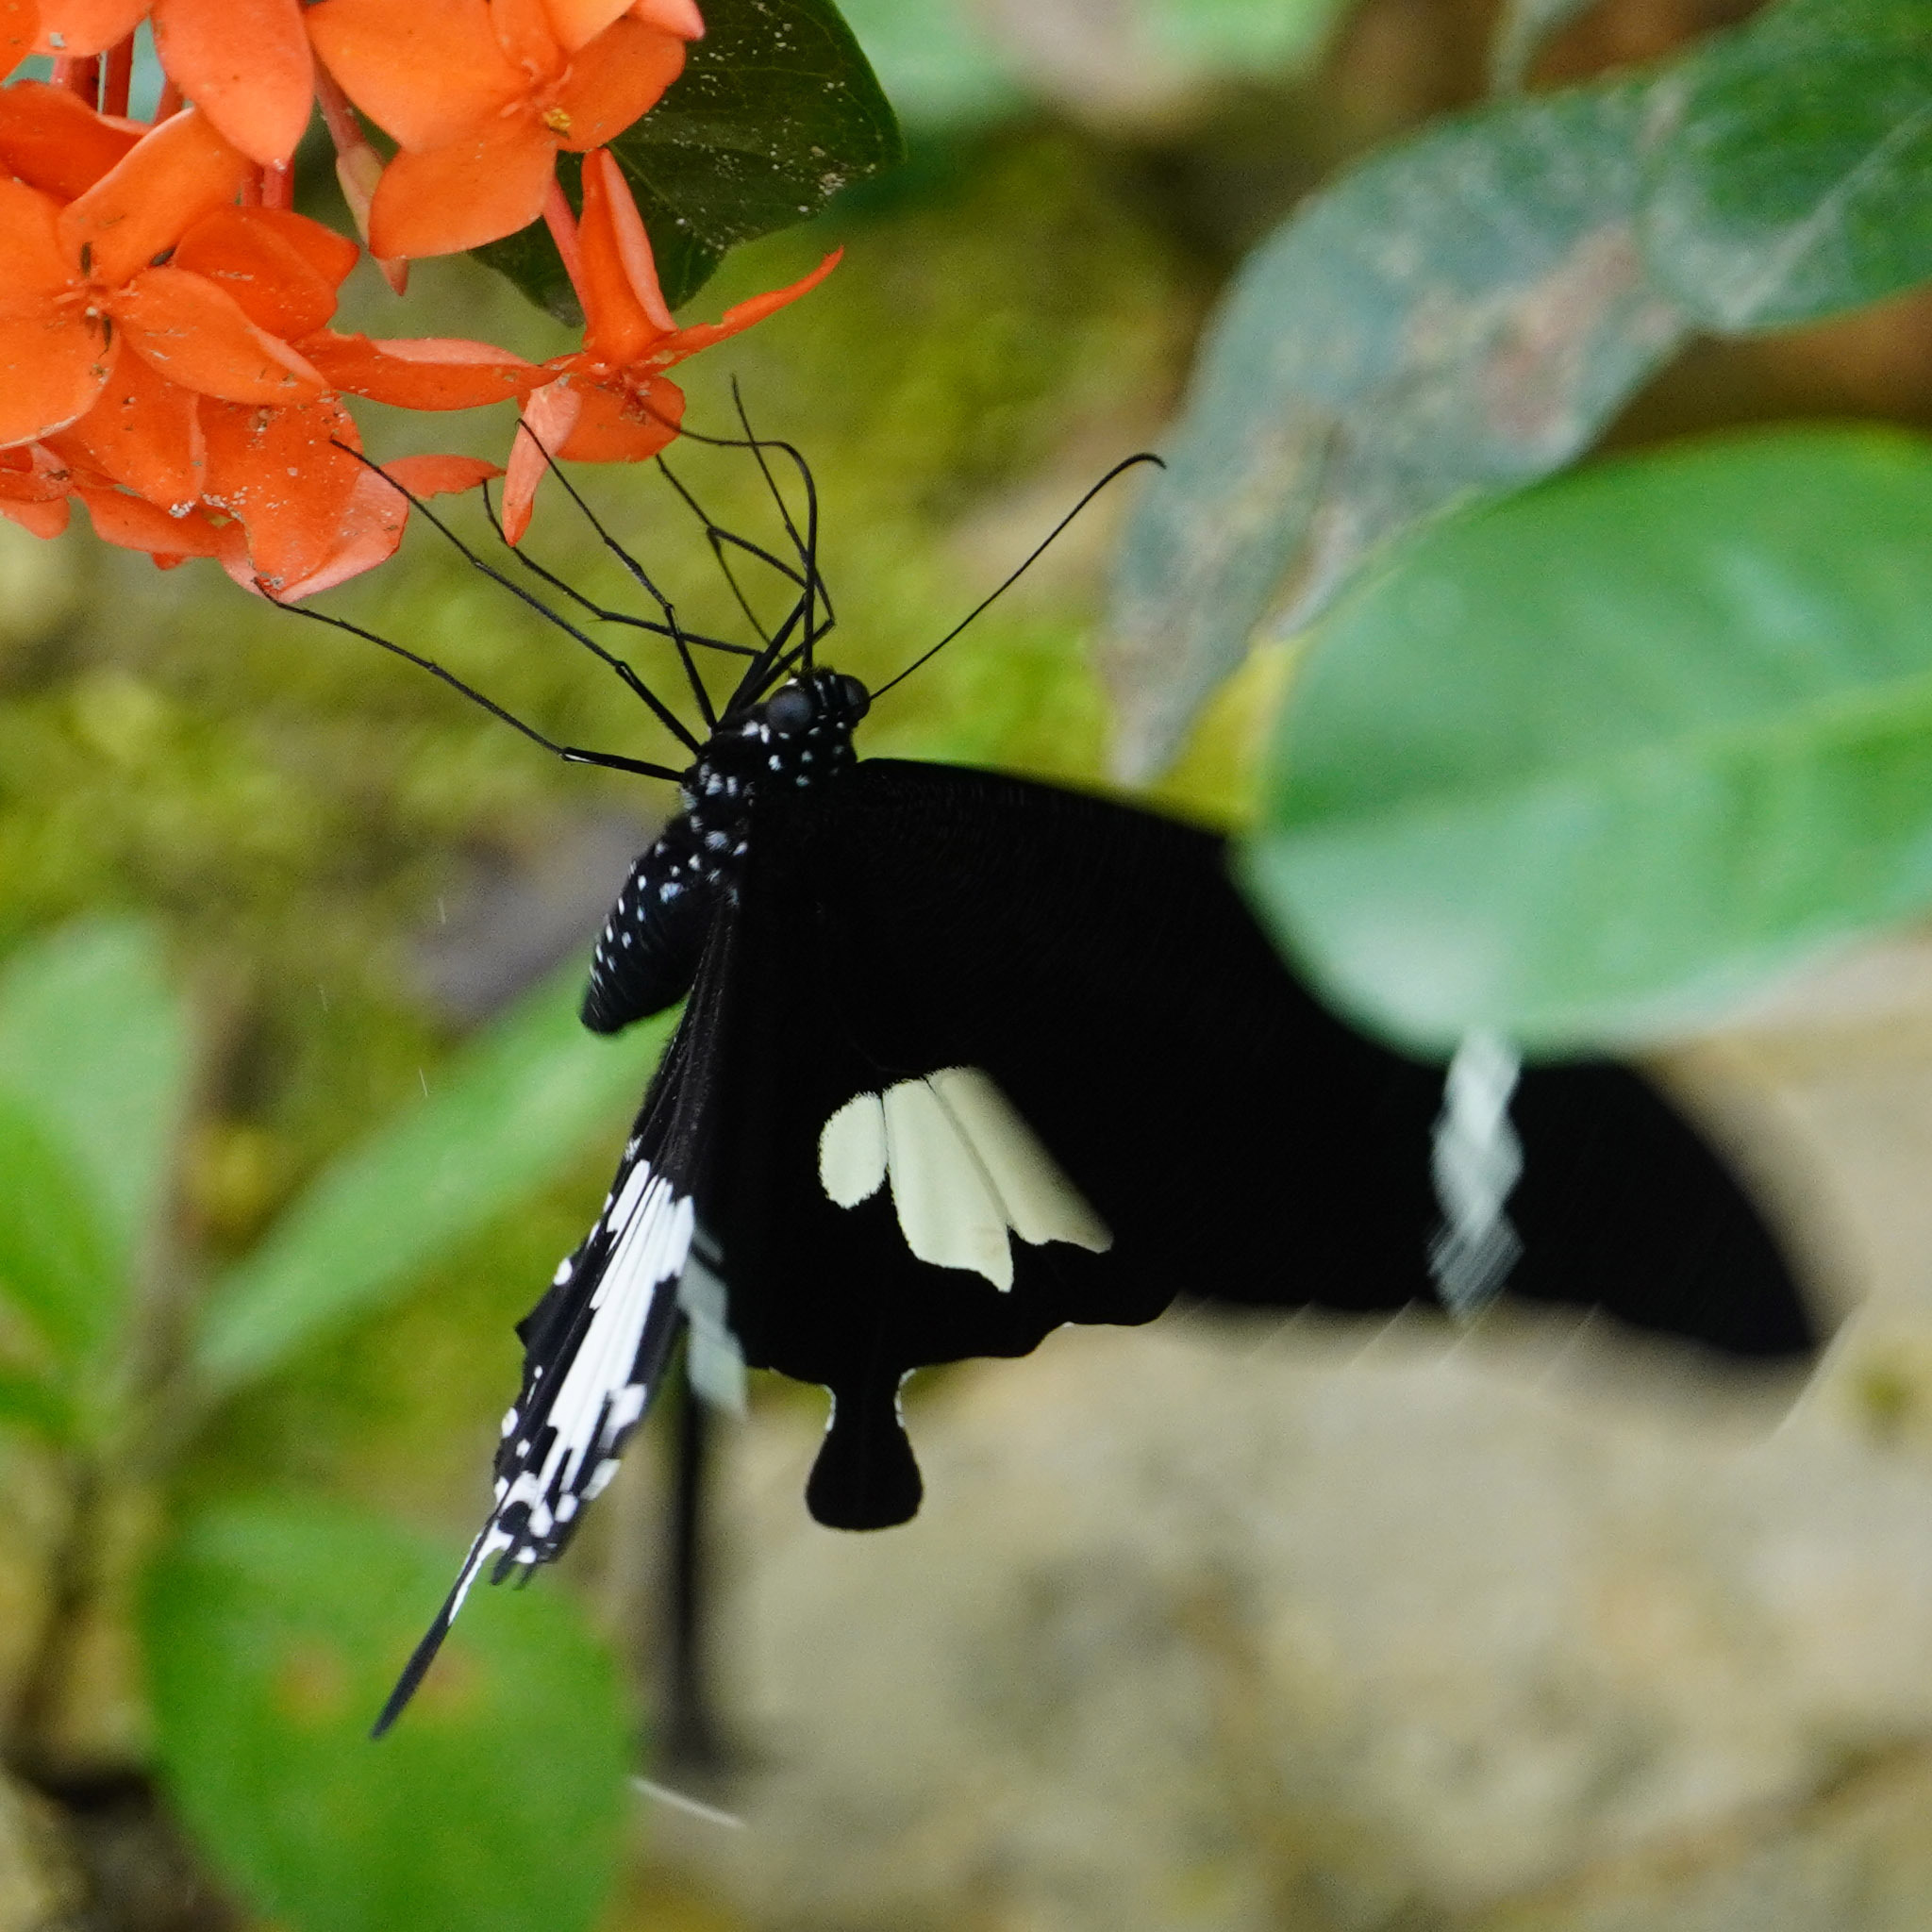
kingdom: Animalia
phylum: Arthropoda
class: Insecta
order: Lepidoptera
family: Papilionidae
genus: Papilio
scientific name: Papilio nephelus
